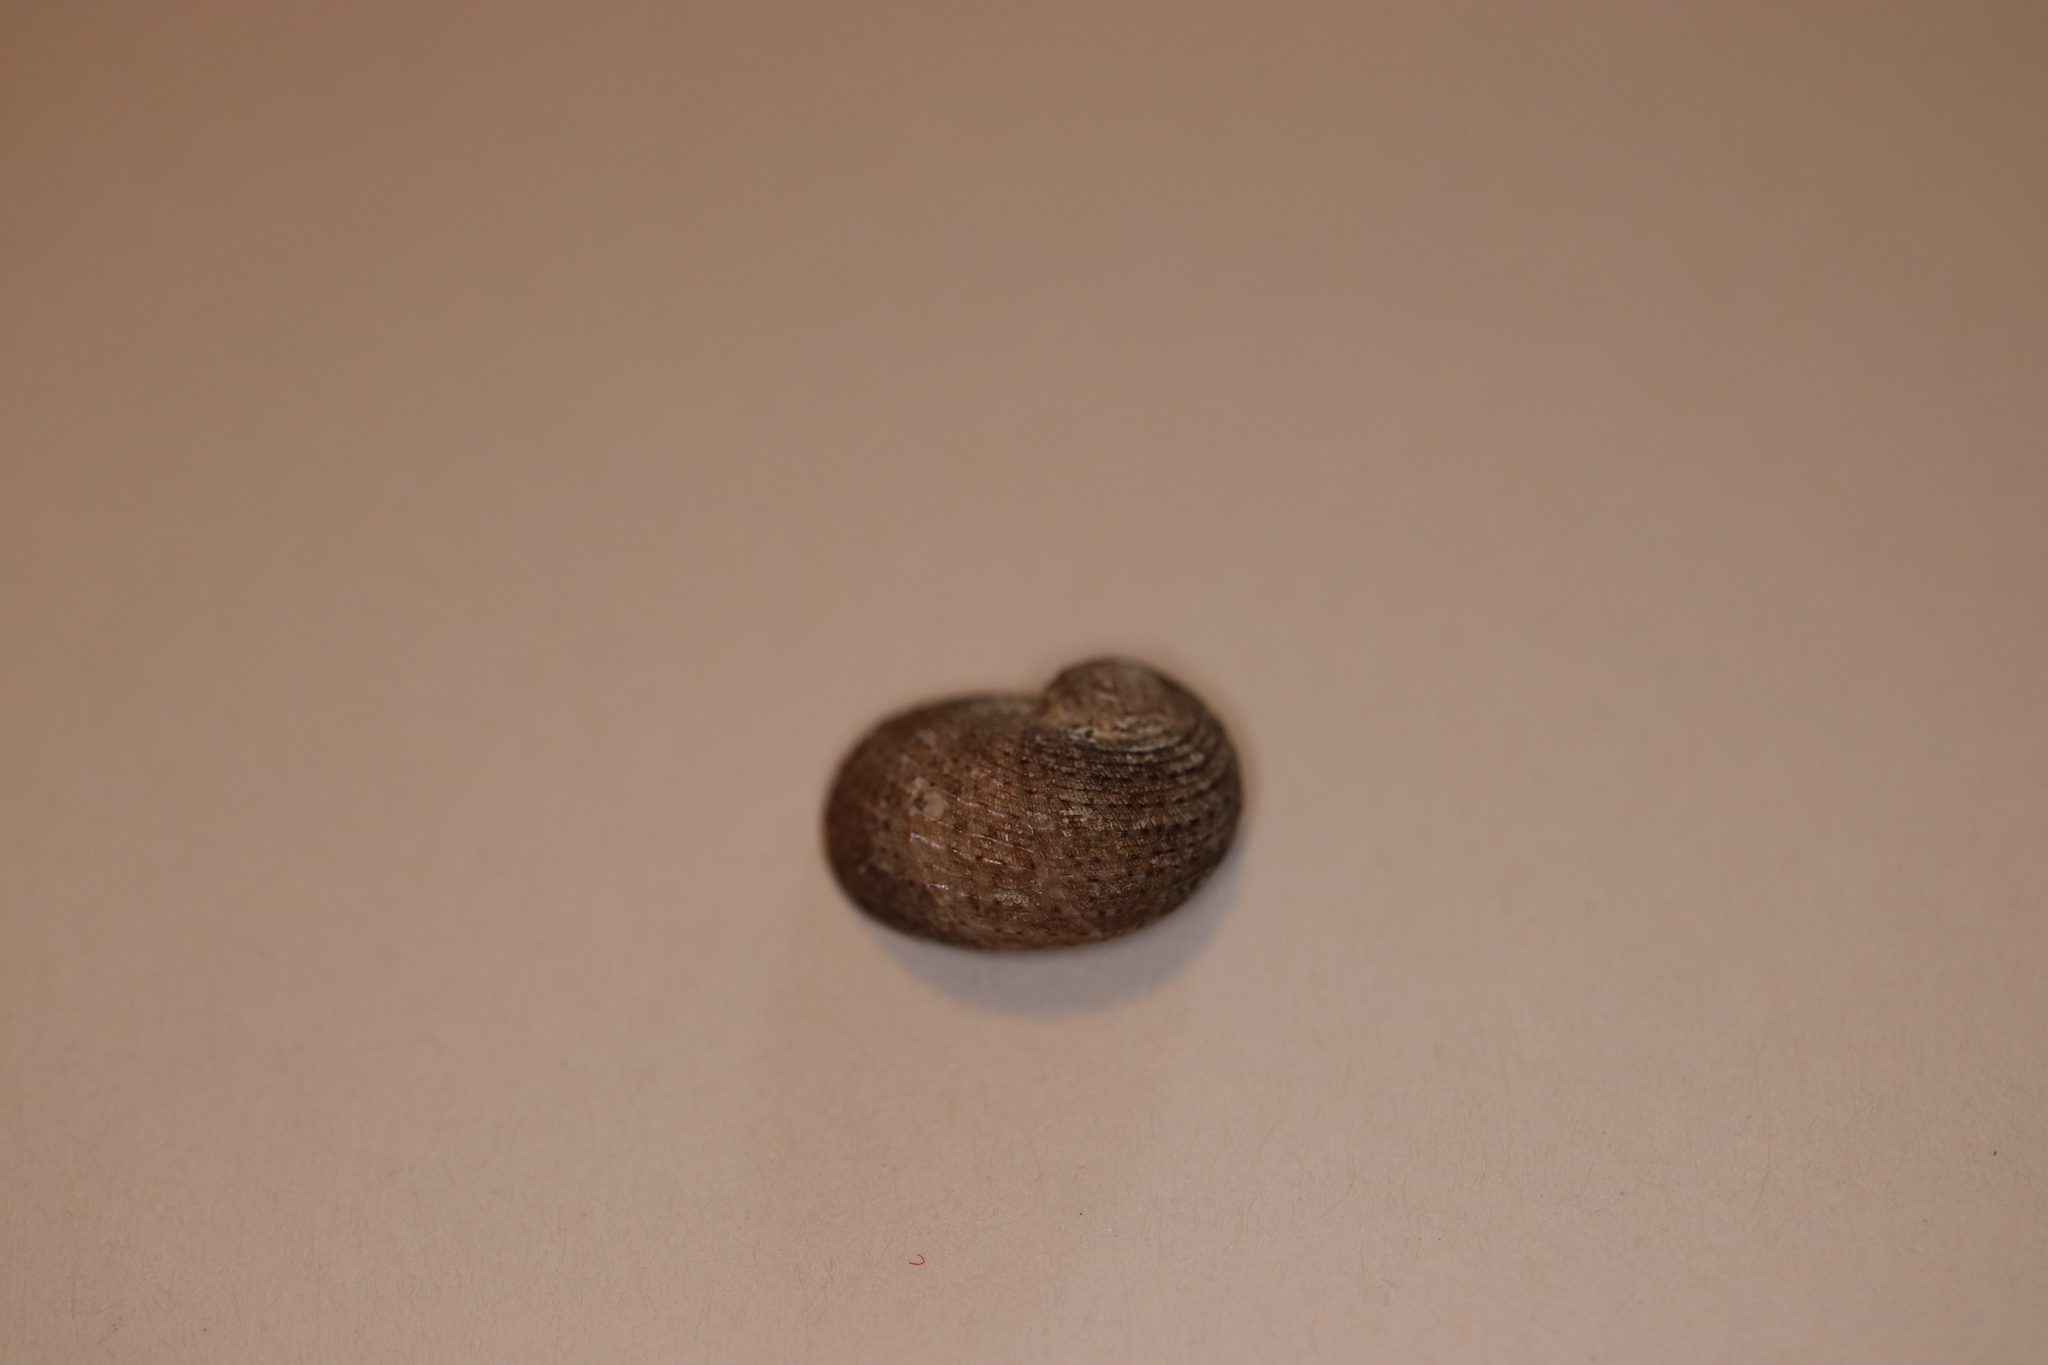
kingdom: Animalia
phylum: Mollusca
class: Gastropoda
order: Seguenziida
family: Chilodontaidae
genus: Granata
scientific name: Granata lyrata
